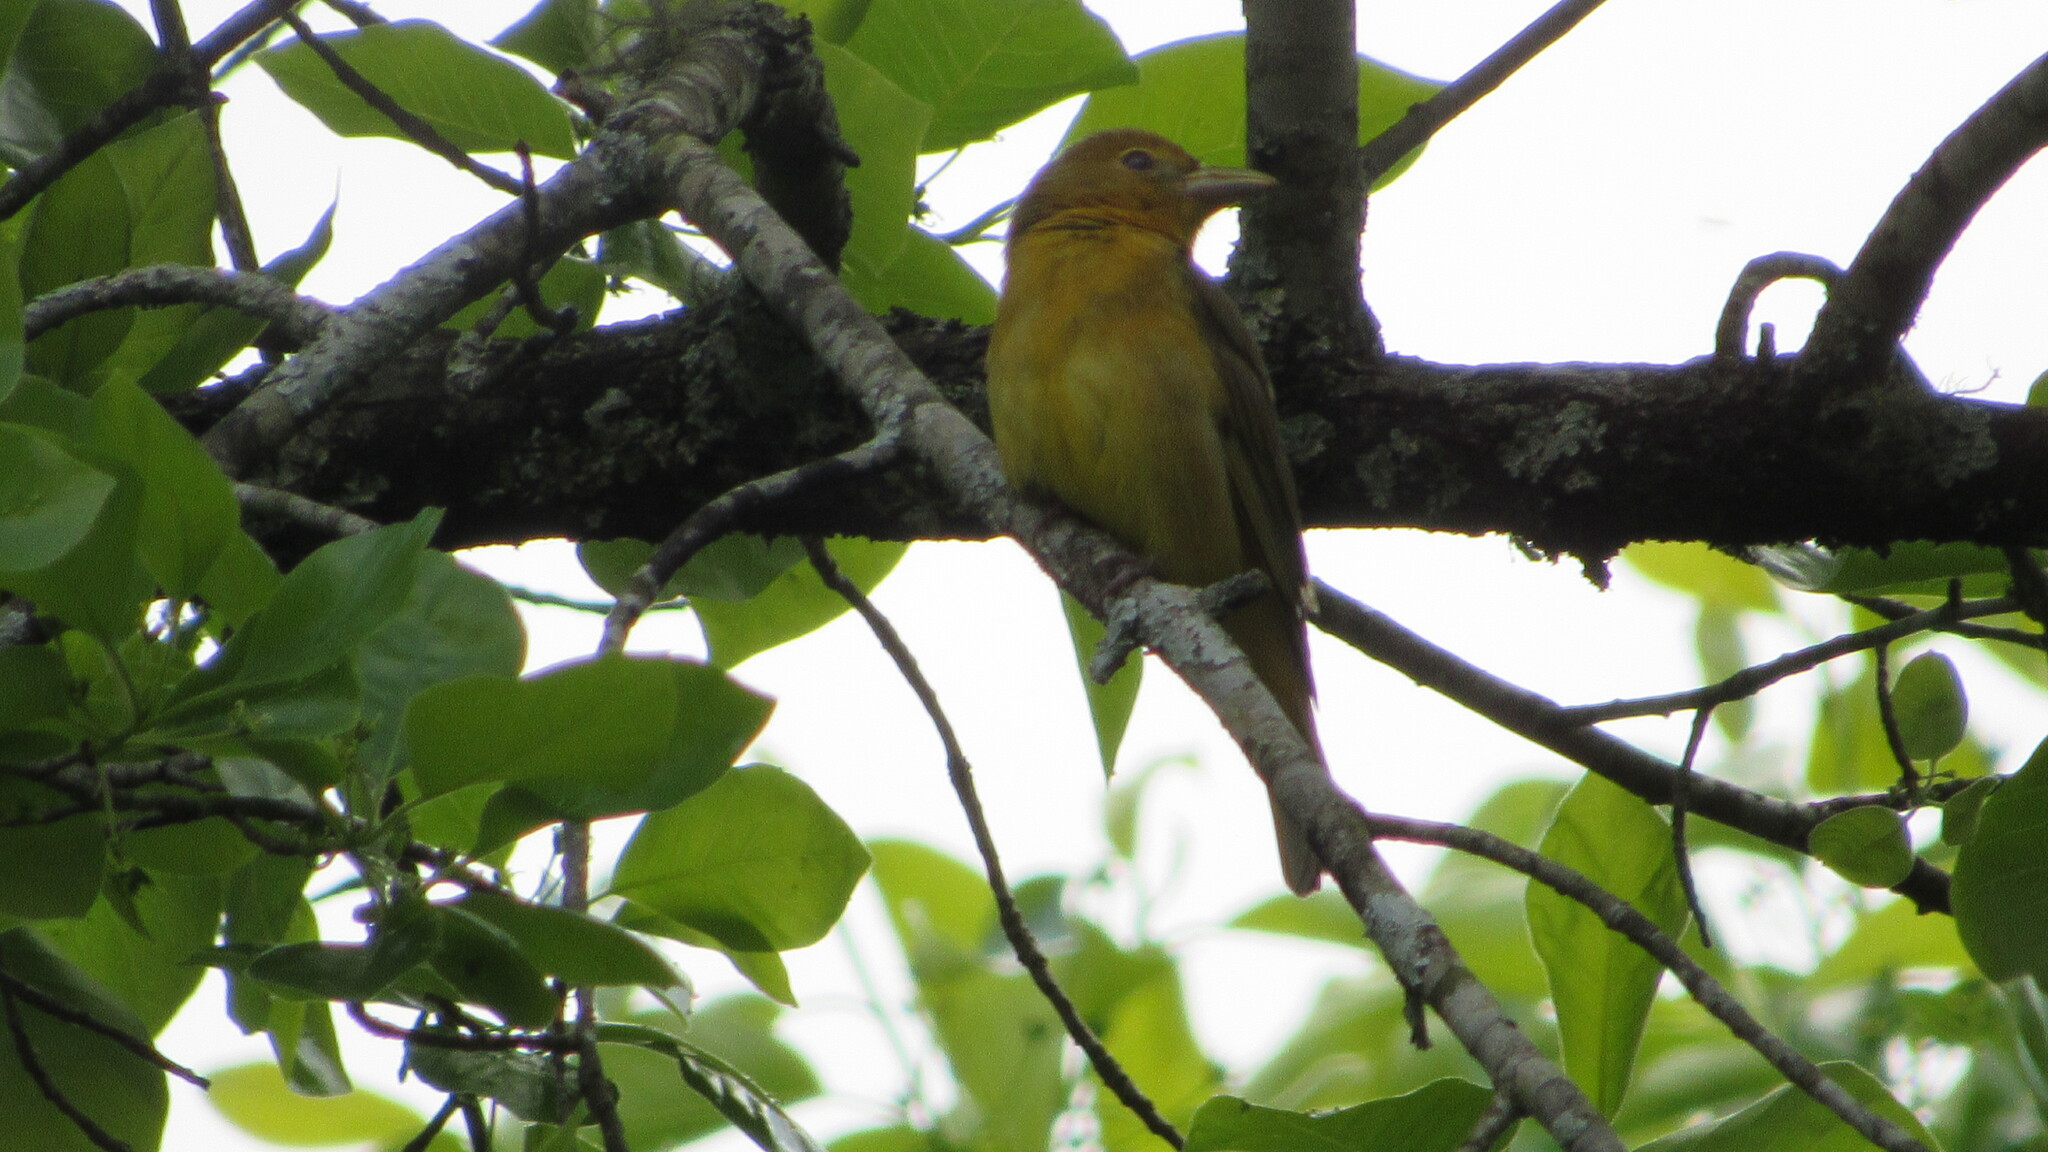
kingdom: Animalia
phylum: Chordata
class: Aves
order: Passeriformes
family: Cardinalidae
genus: Piranga
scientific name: Piranga rubra
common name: Summer tanager
